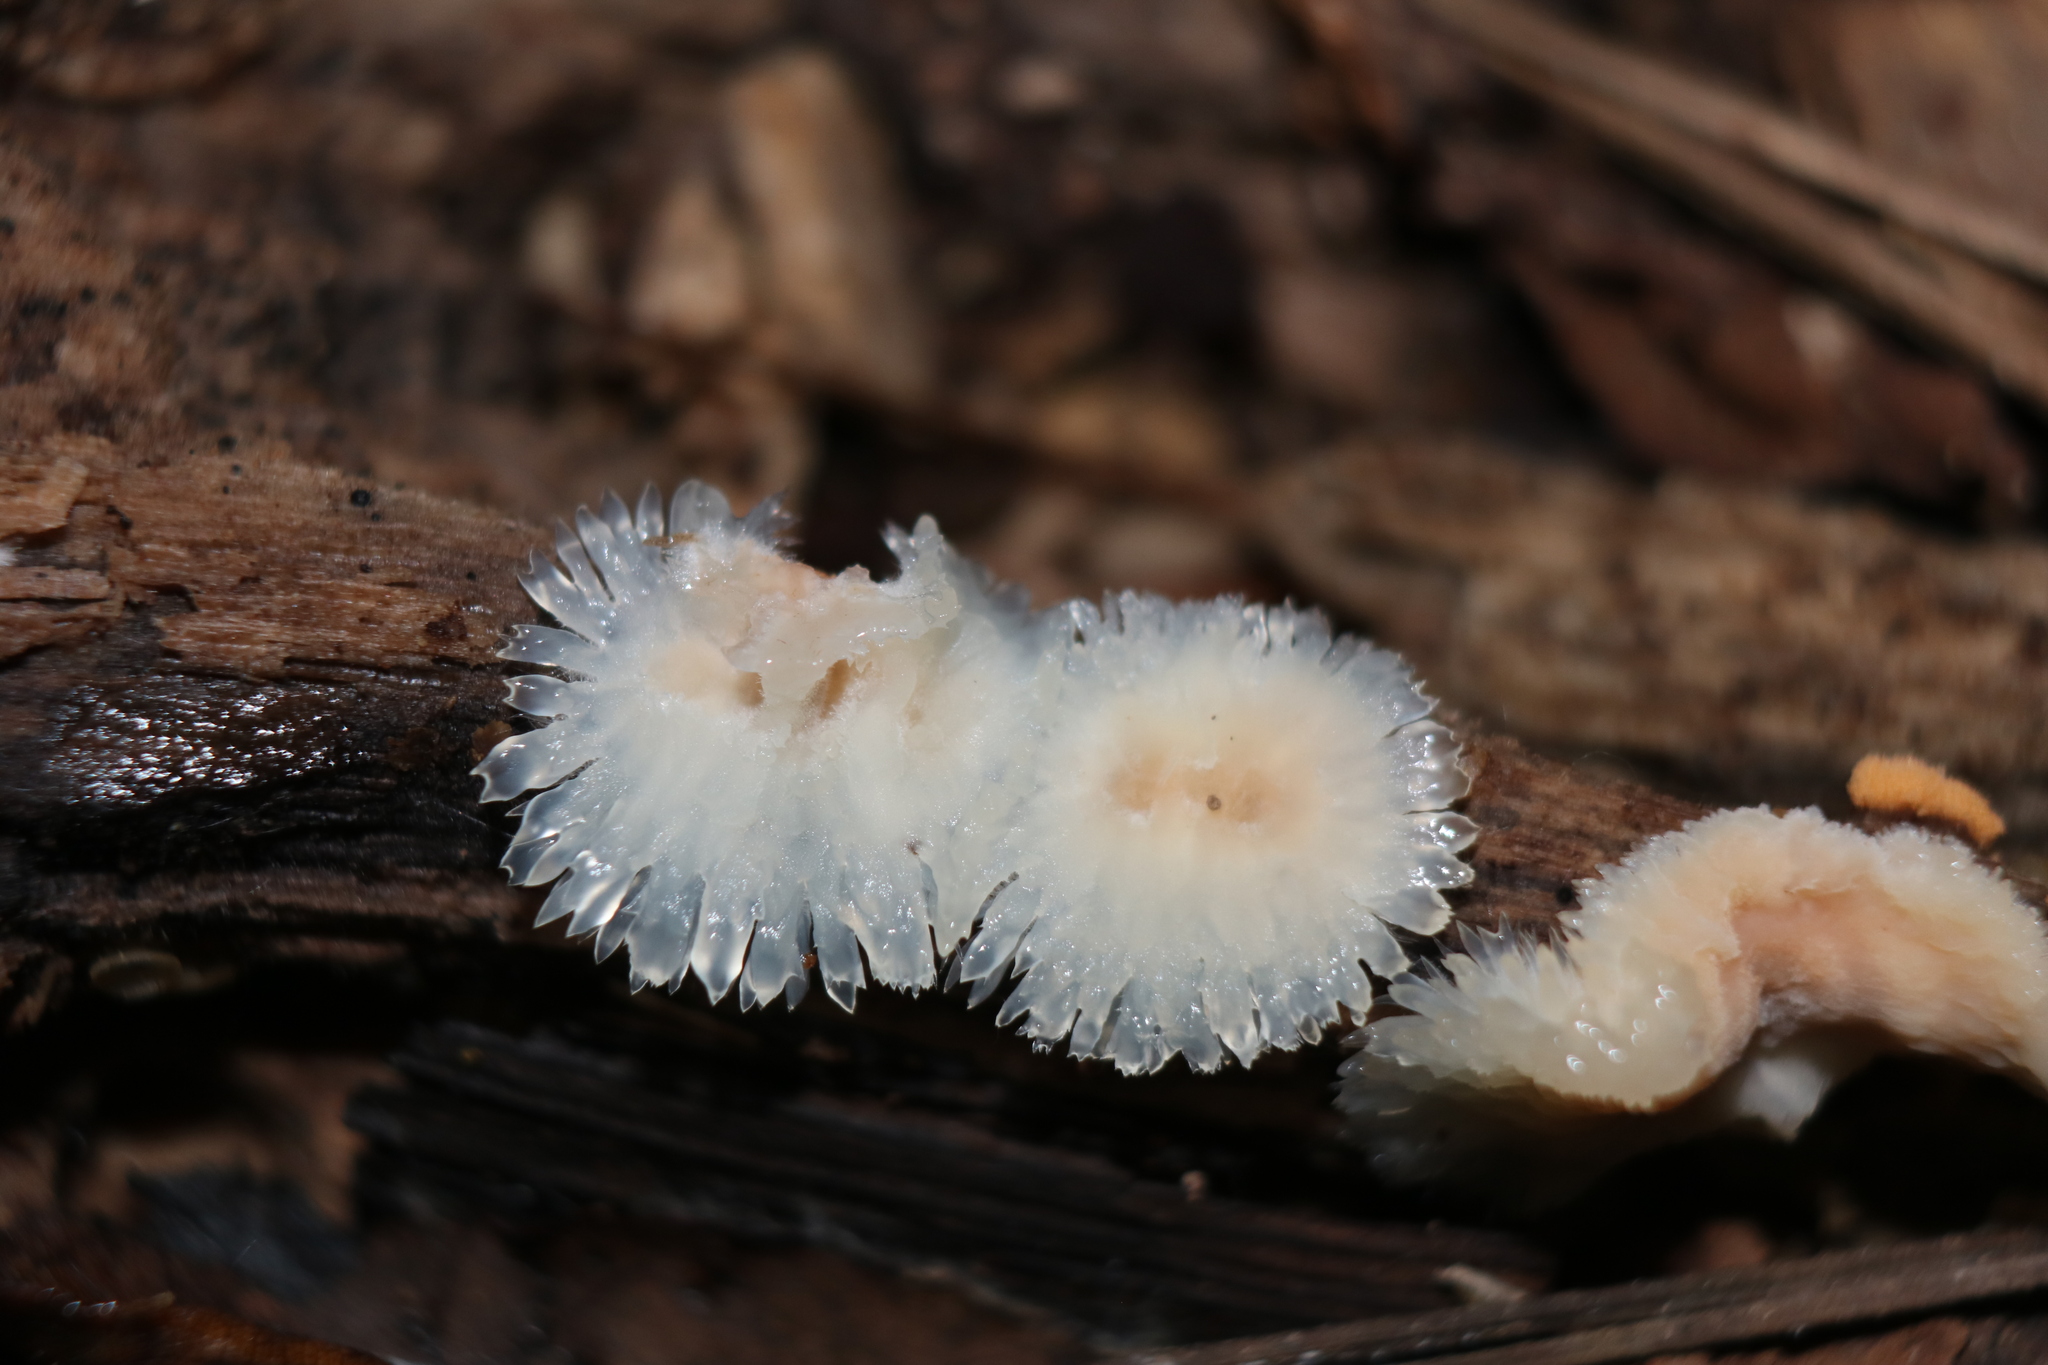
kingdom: Fungi
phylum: Basidiomycota
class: Agaricomycetes
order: Polyporales
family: Meruliaceae
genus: Phlebia
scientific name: Phlebia tremellosa
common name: Jelly rot
